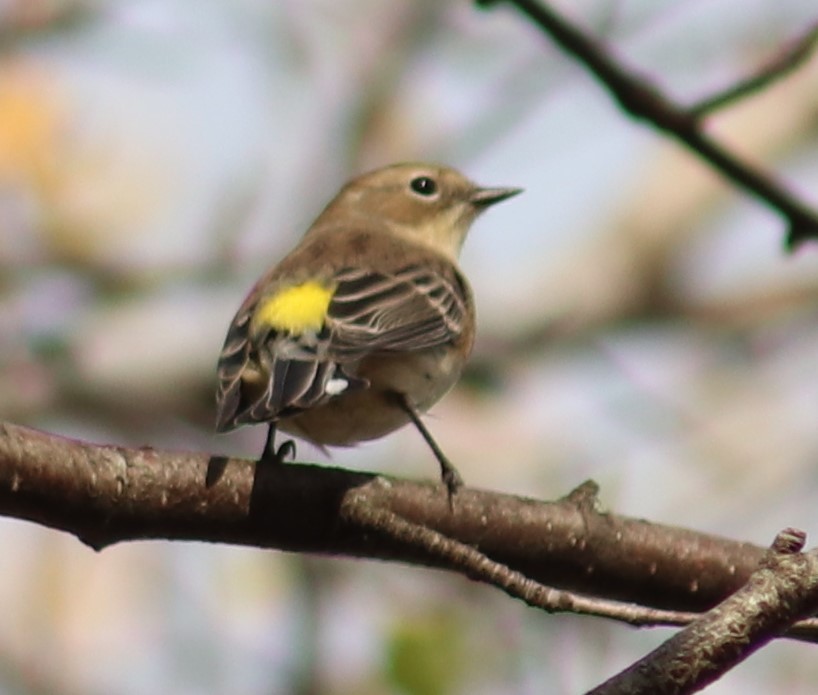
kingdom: Animalia
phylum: Chordata
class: Aves
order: Passeriformes
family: Parulidae
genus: Setophaga
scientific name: Setophaga coronata
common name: Myrtle warbler
